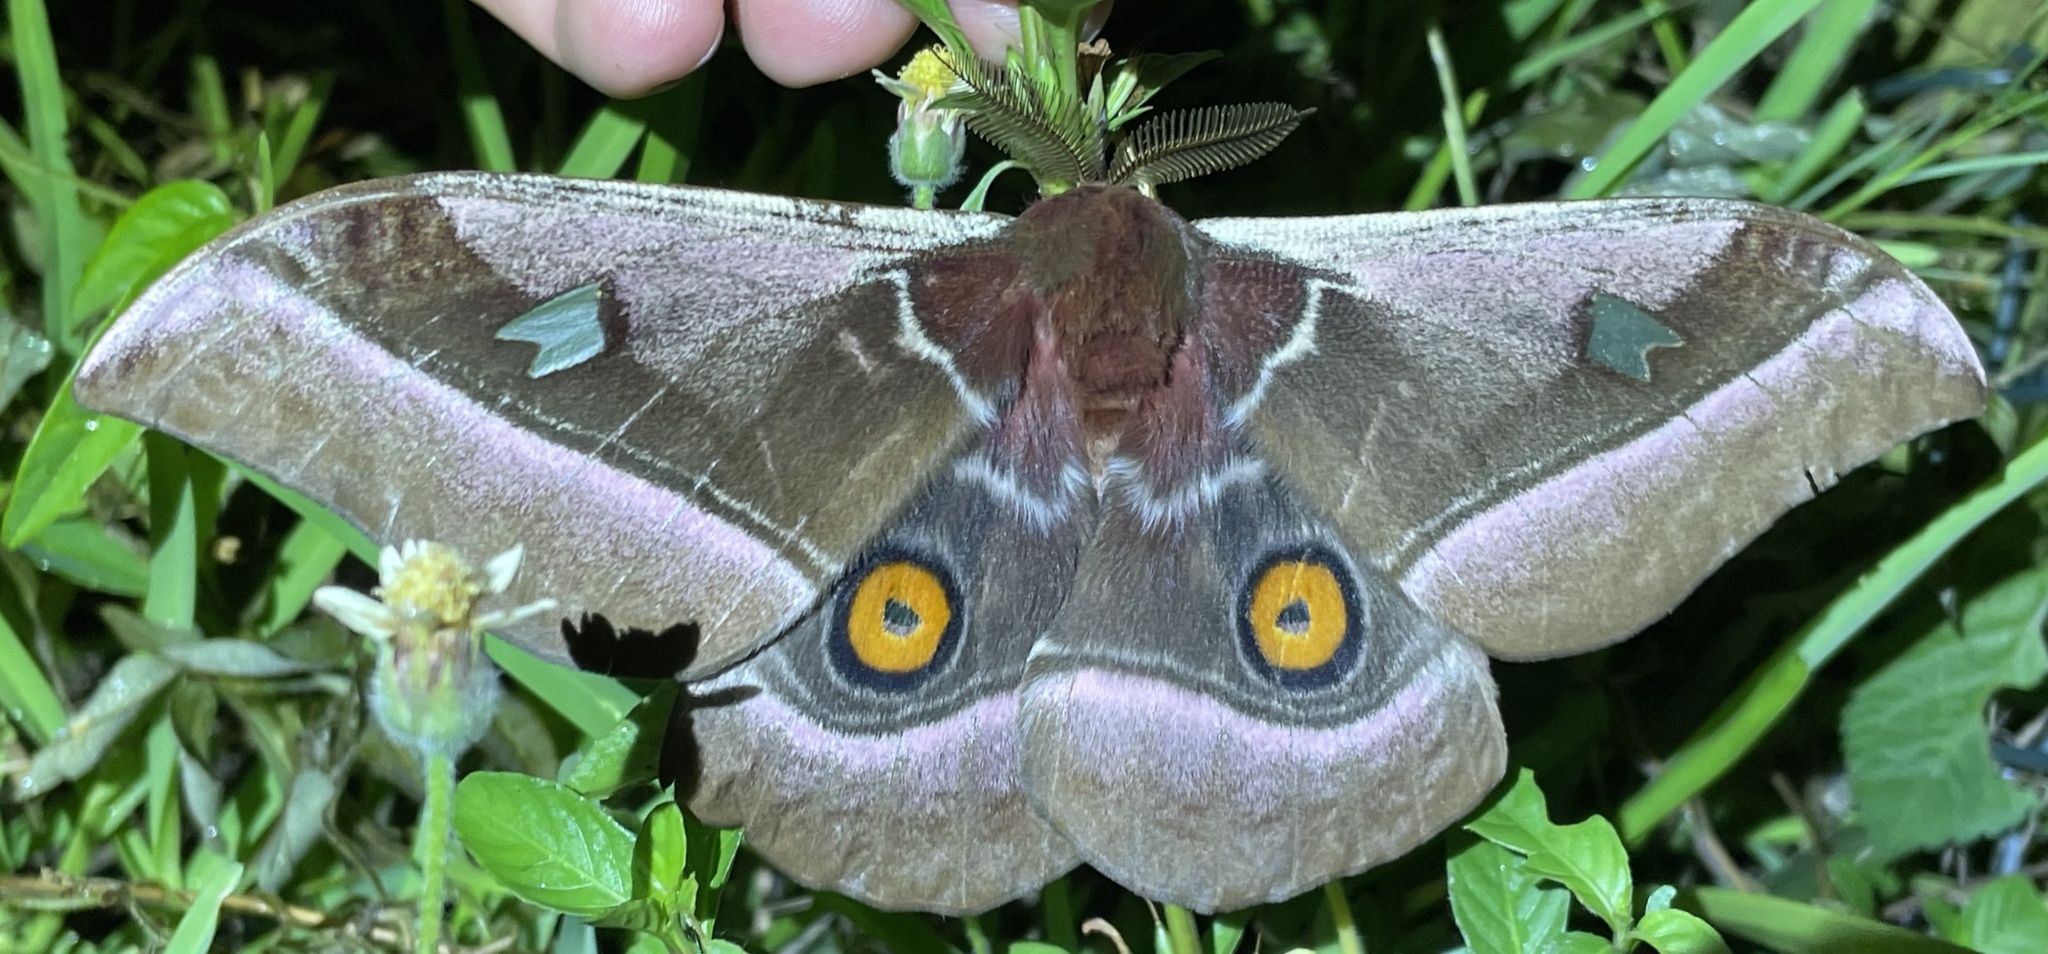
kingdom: Animalia
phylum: Arthropoda
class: Insecta
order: Lepidoptera
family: Saturniidae
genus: Bunaea
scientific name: Bunaea alcinoe
